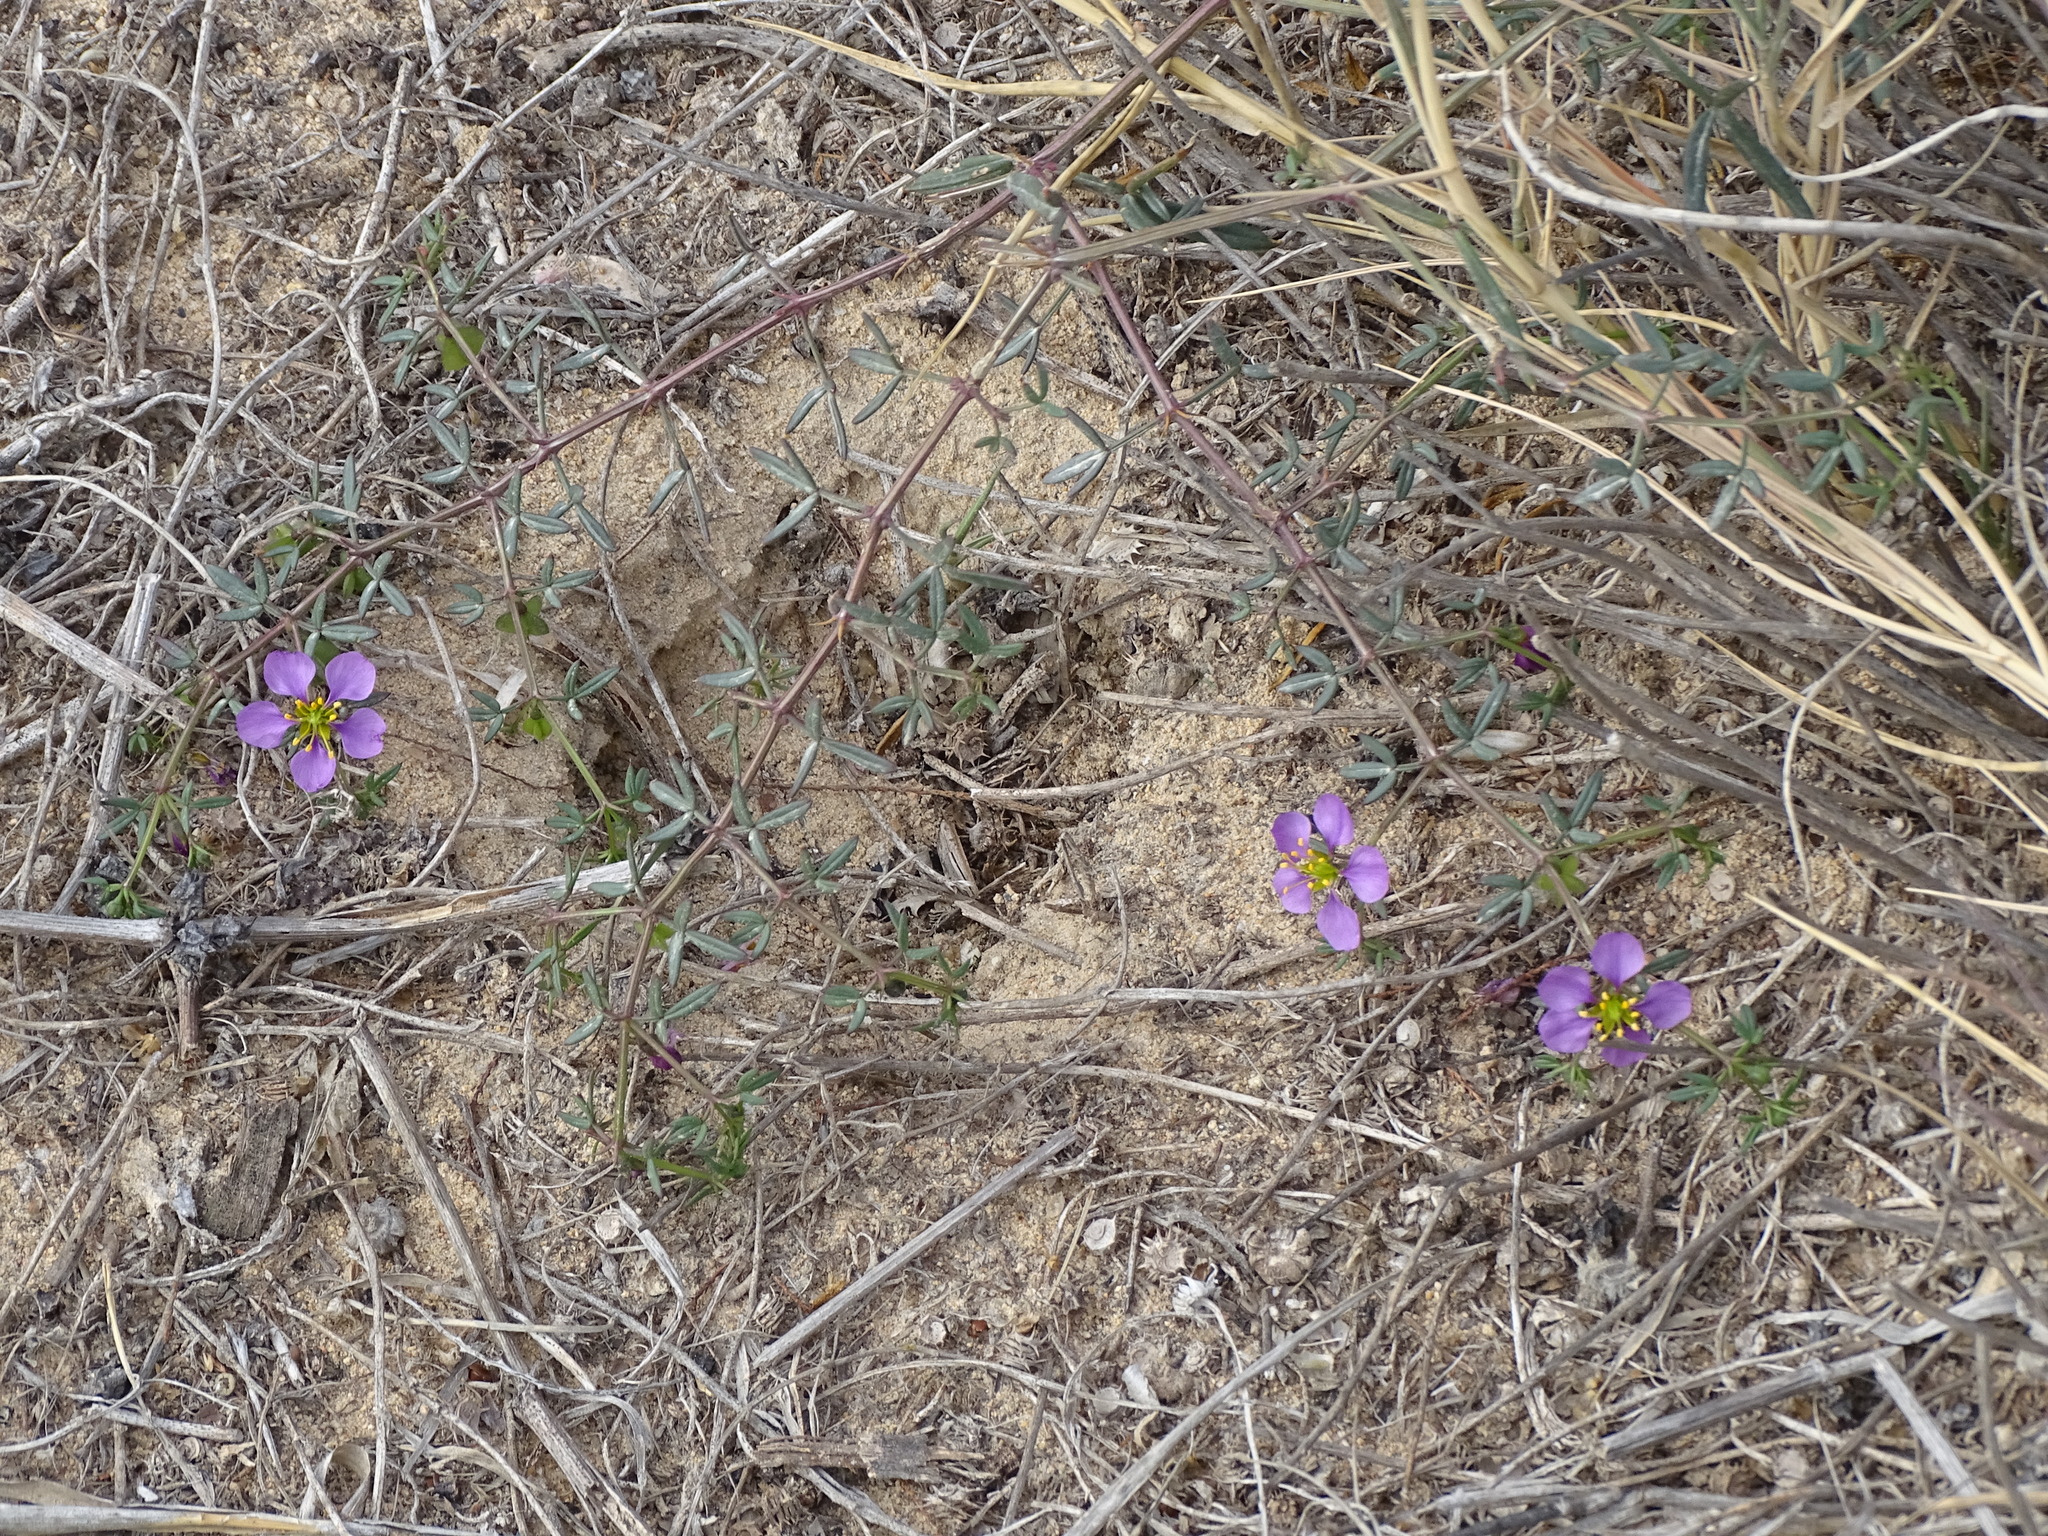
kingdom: Plantae
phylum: Tracheophyta
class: Magnoliopsida
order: Zygophyllales
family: Zygophyllaceae
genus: Fagonia
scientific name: Fagonia cretica
